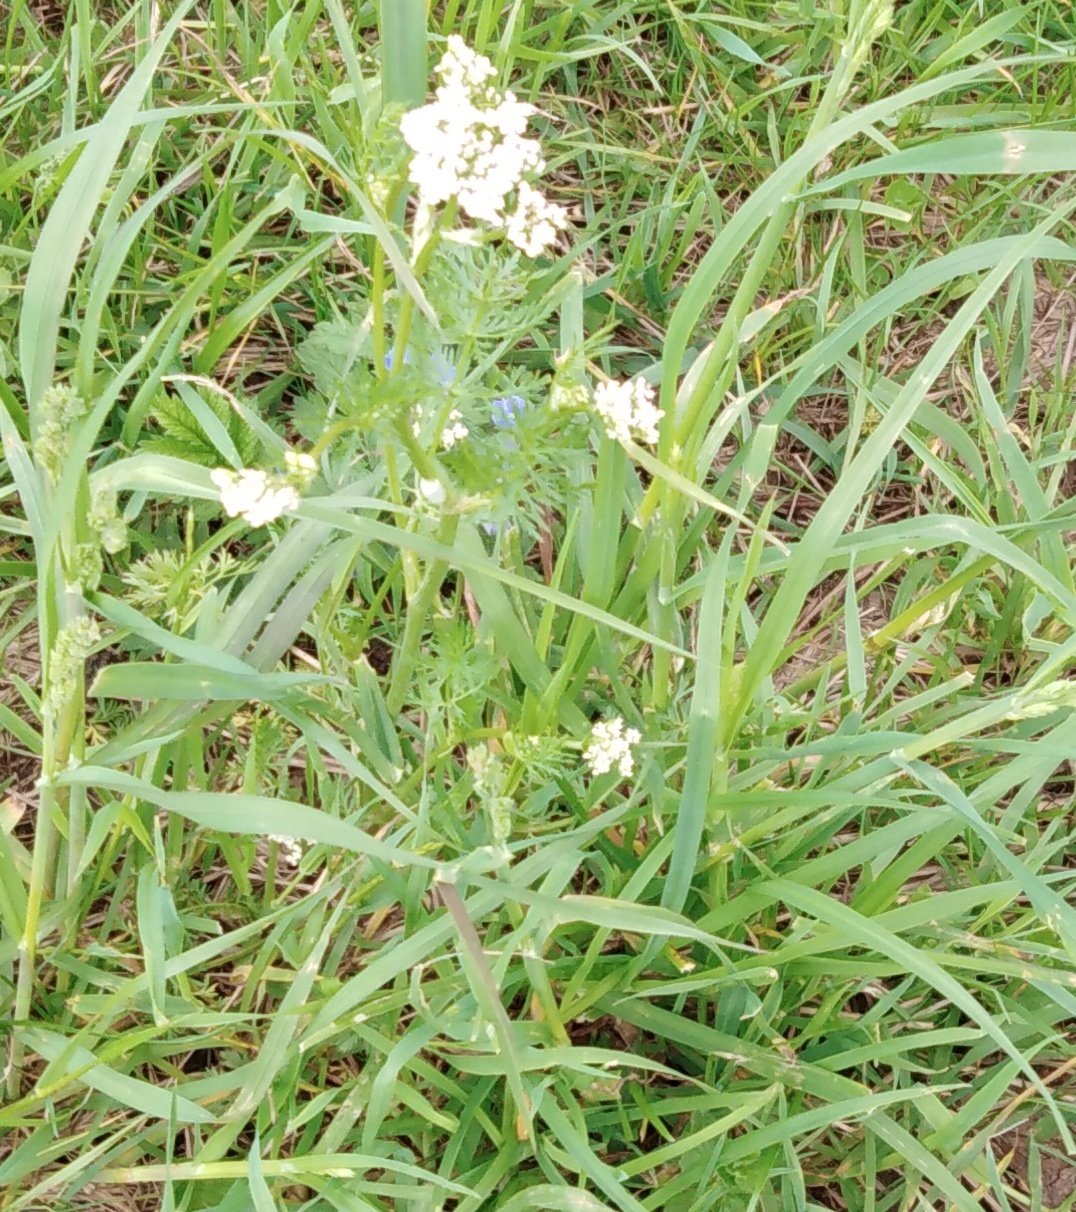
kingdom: Plantae
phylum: Tracheophyta
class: Magnoliopsida
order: Apiales
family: Apiaceae
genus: Carum
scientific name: Carum carvi
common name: Caraway
